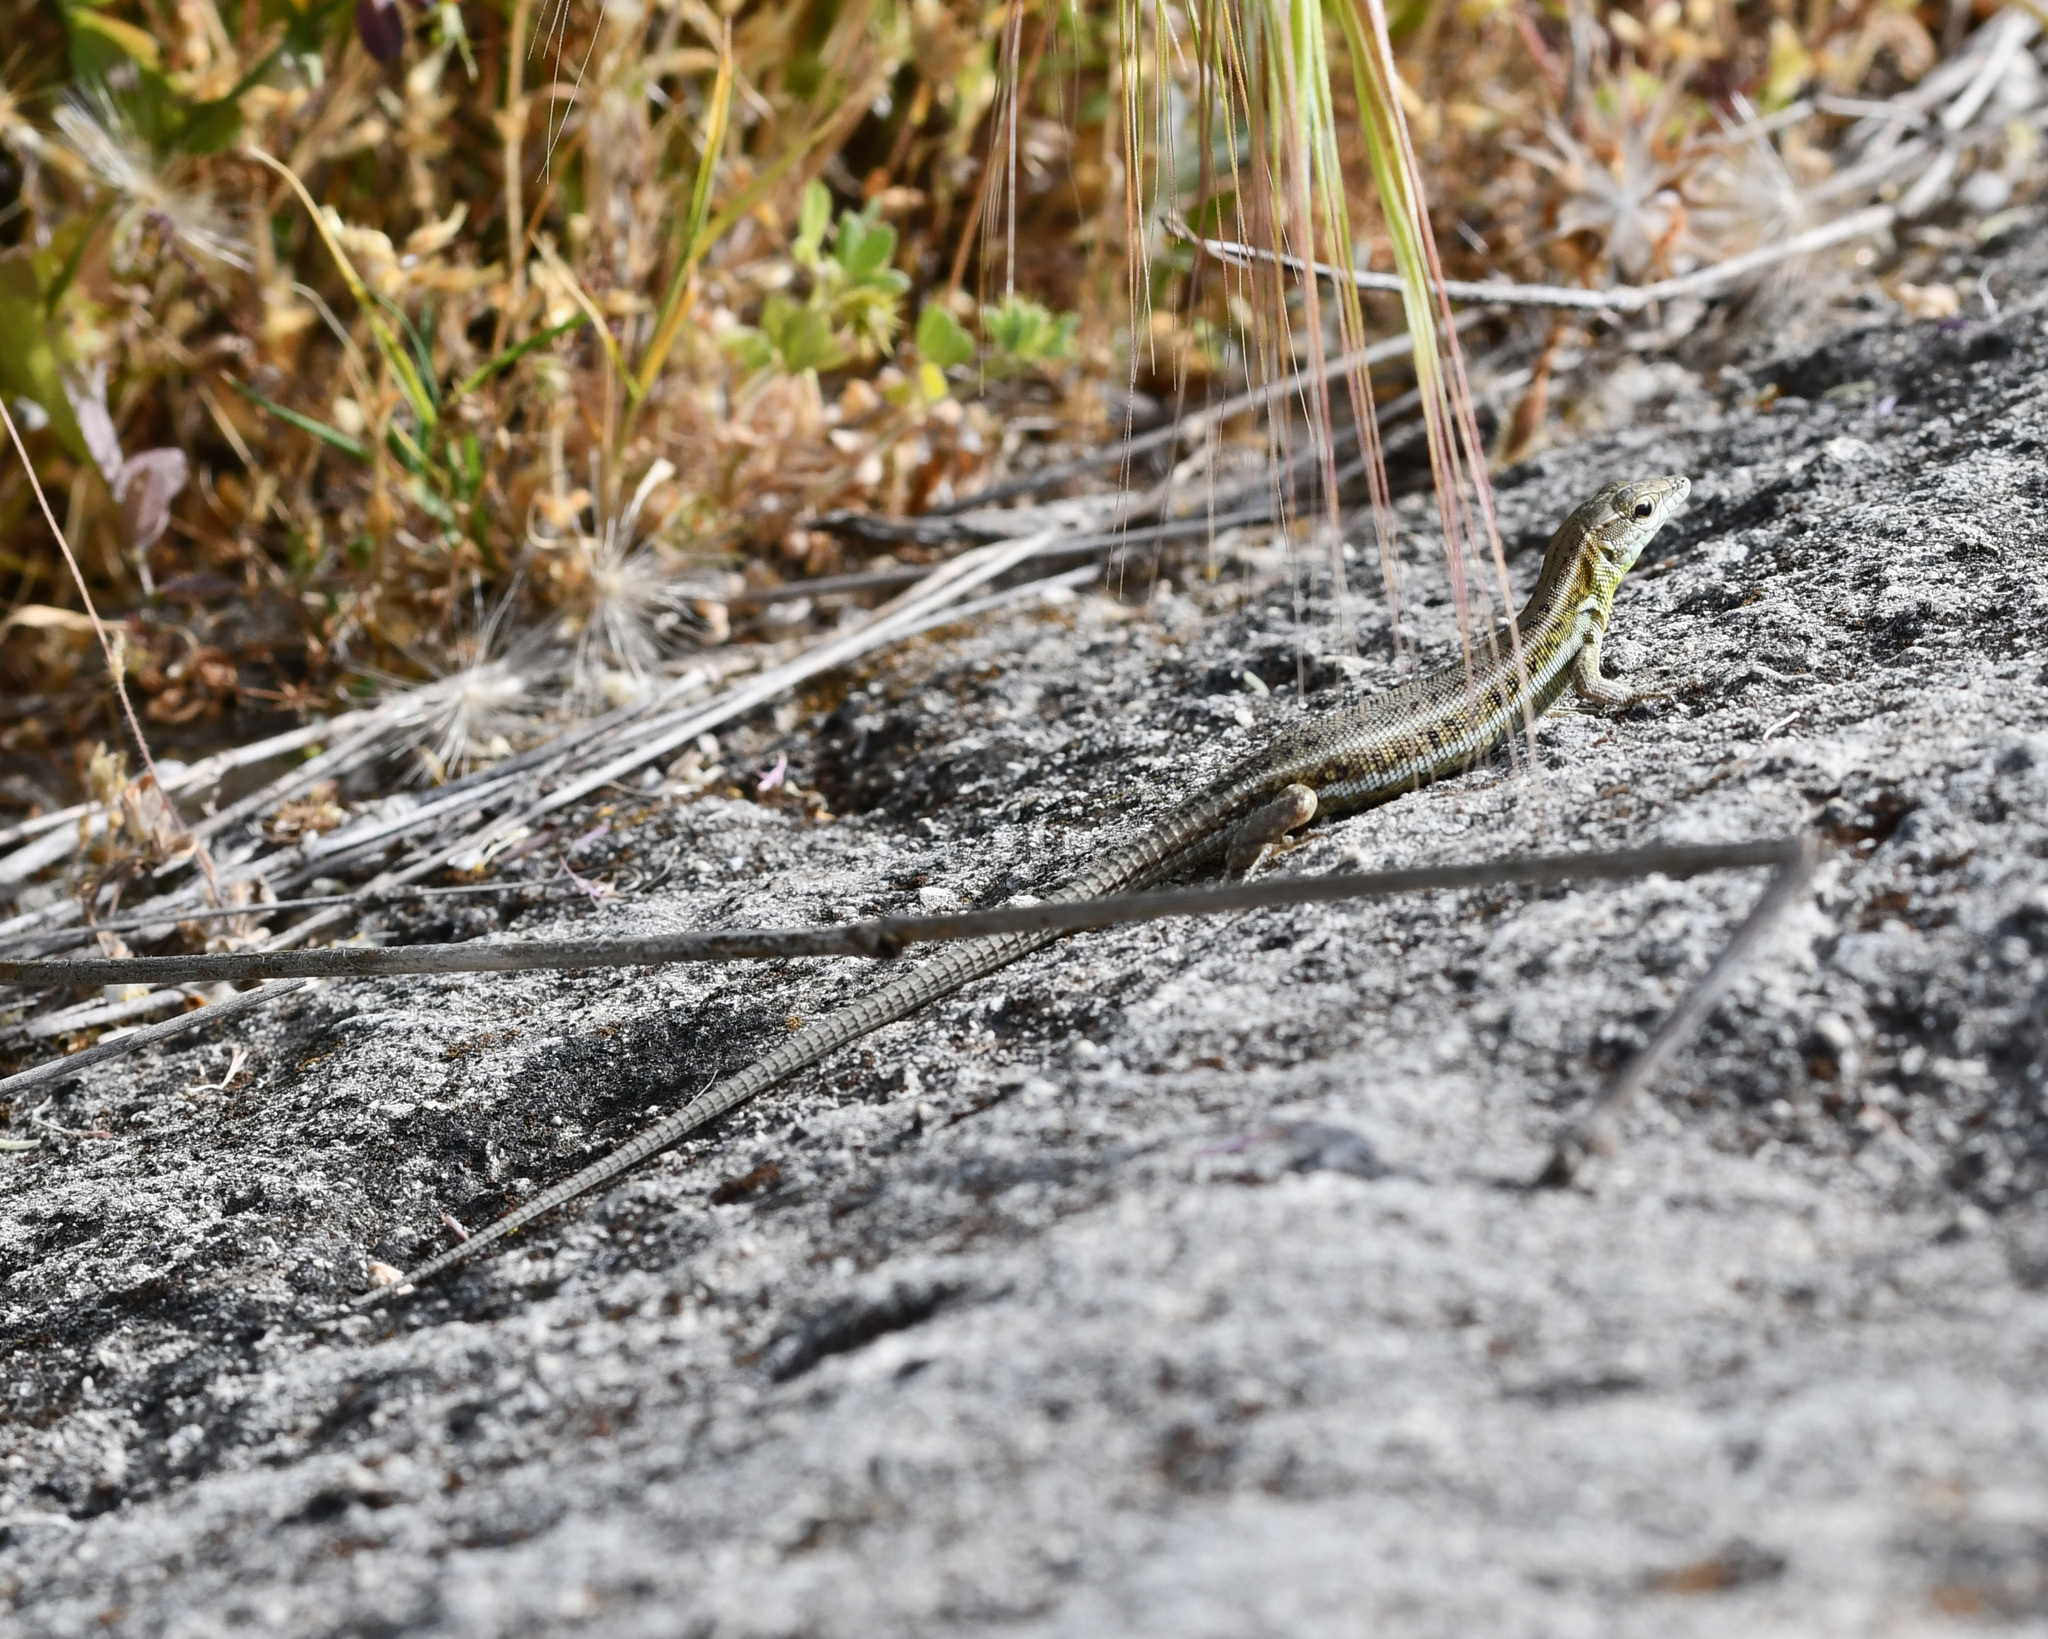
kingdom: Animalia
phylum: Chordata
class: Squamata
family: Lacertidae
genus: Ophisops
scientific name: Ophisops elegans
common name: Snake-eyed lizard
